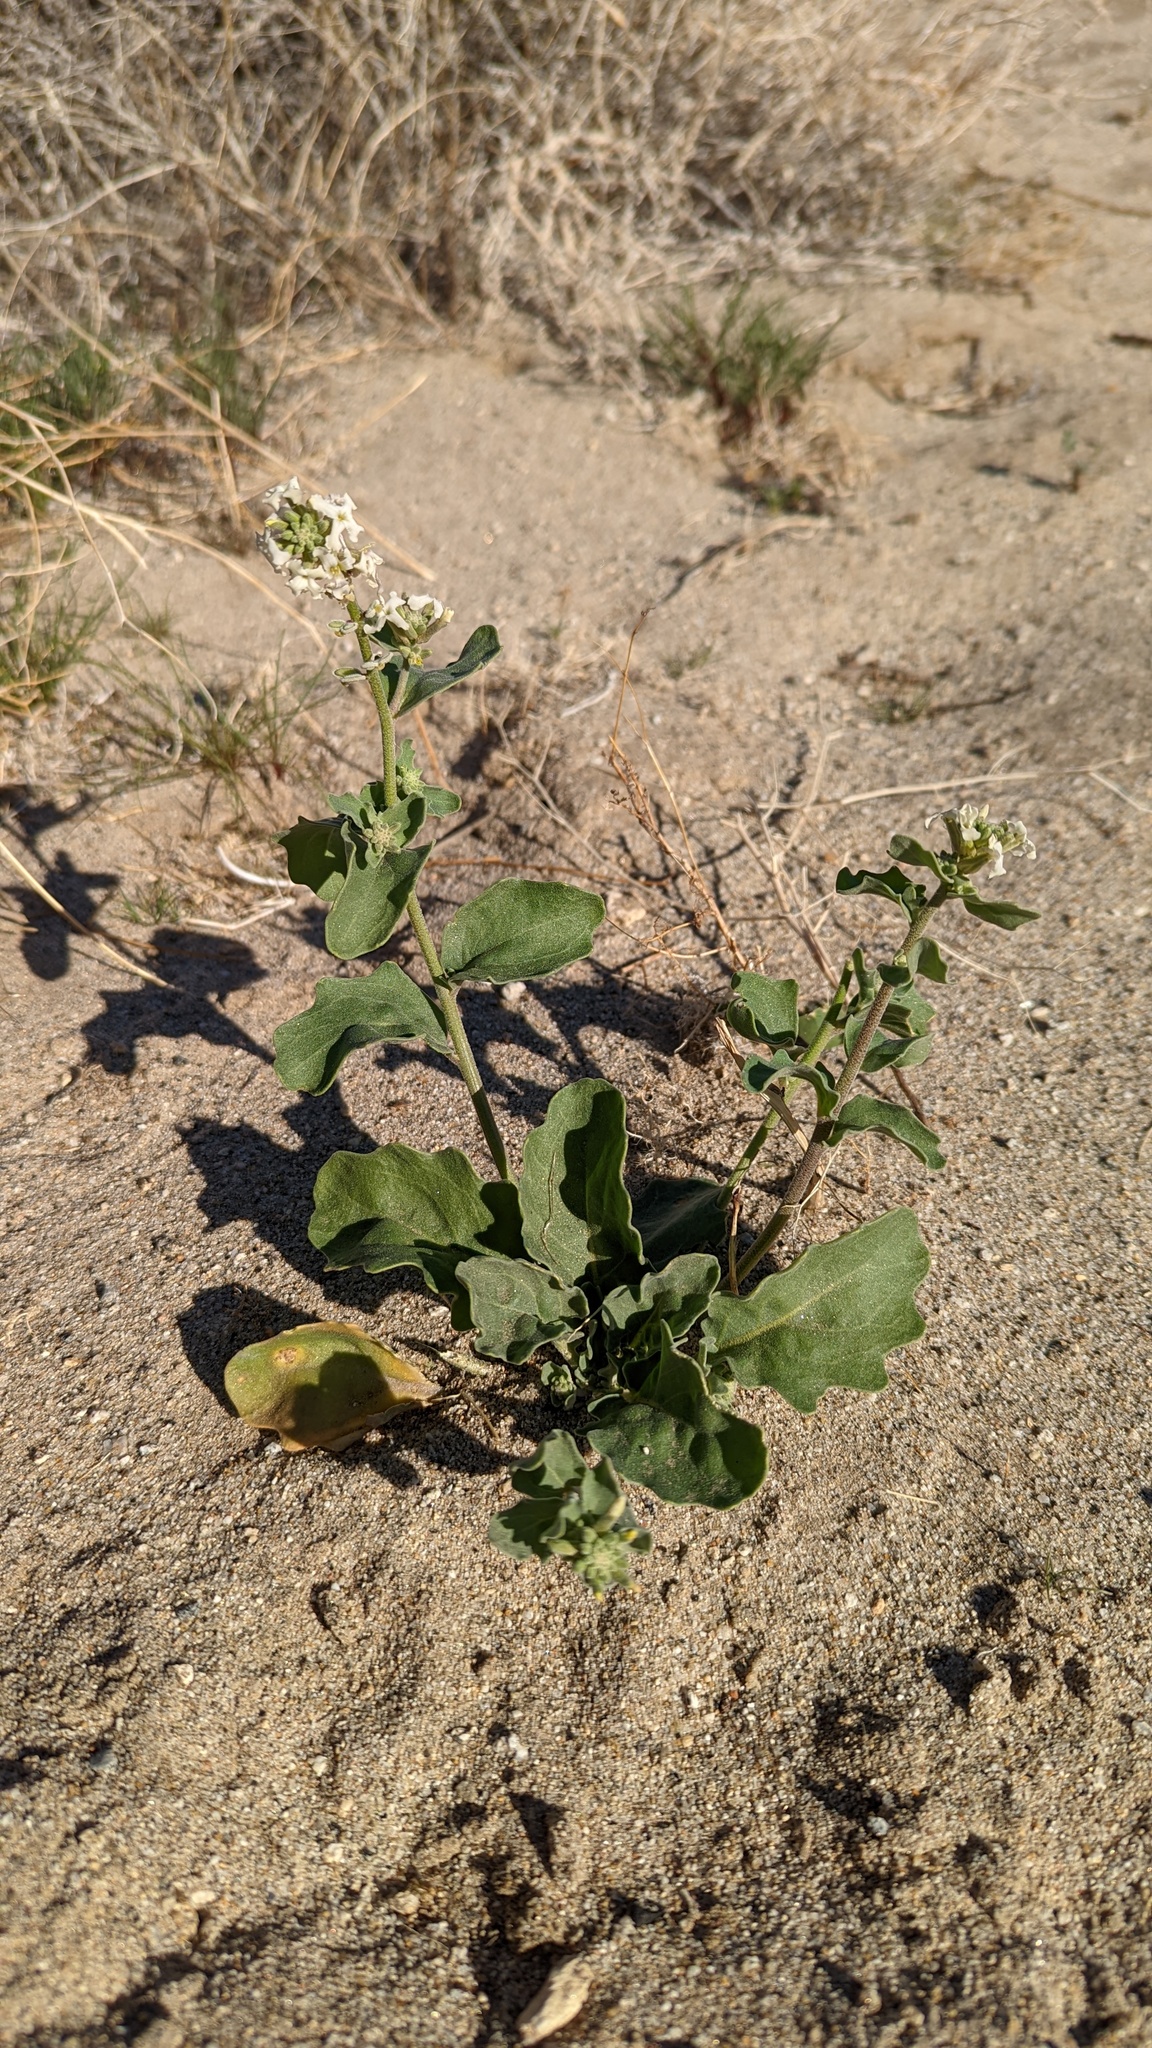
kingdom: Plantae
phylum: Tracheophyta
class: Magnoliopsida
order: Brassicales
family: Brassicaceae
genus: Dithyrea
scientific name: Dithyrea californica
